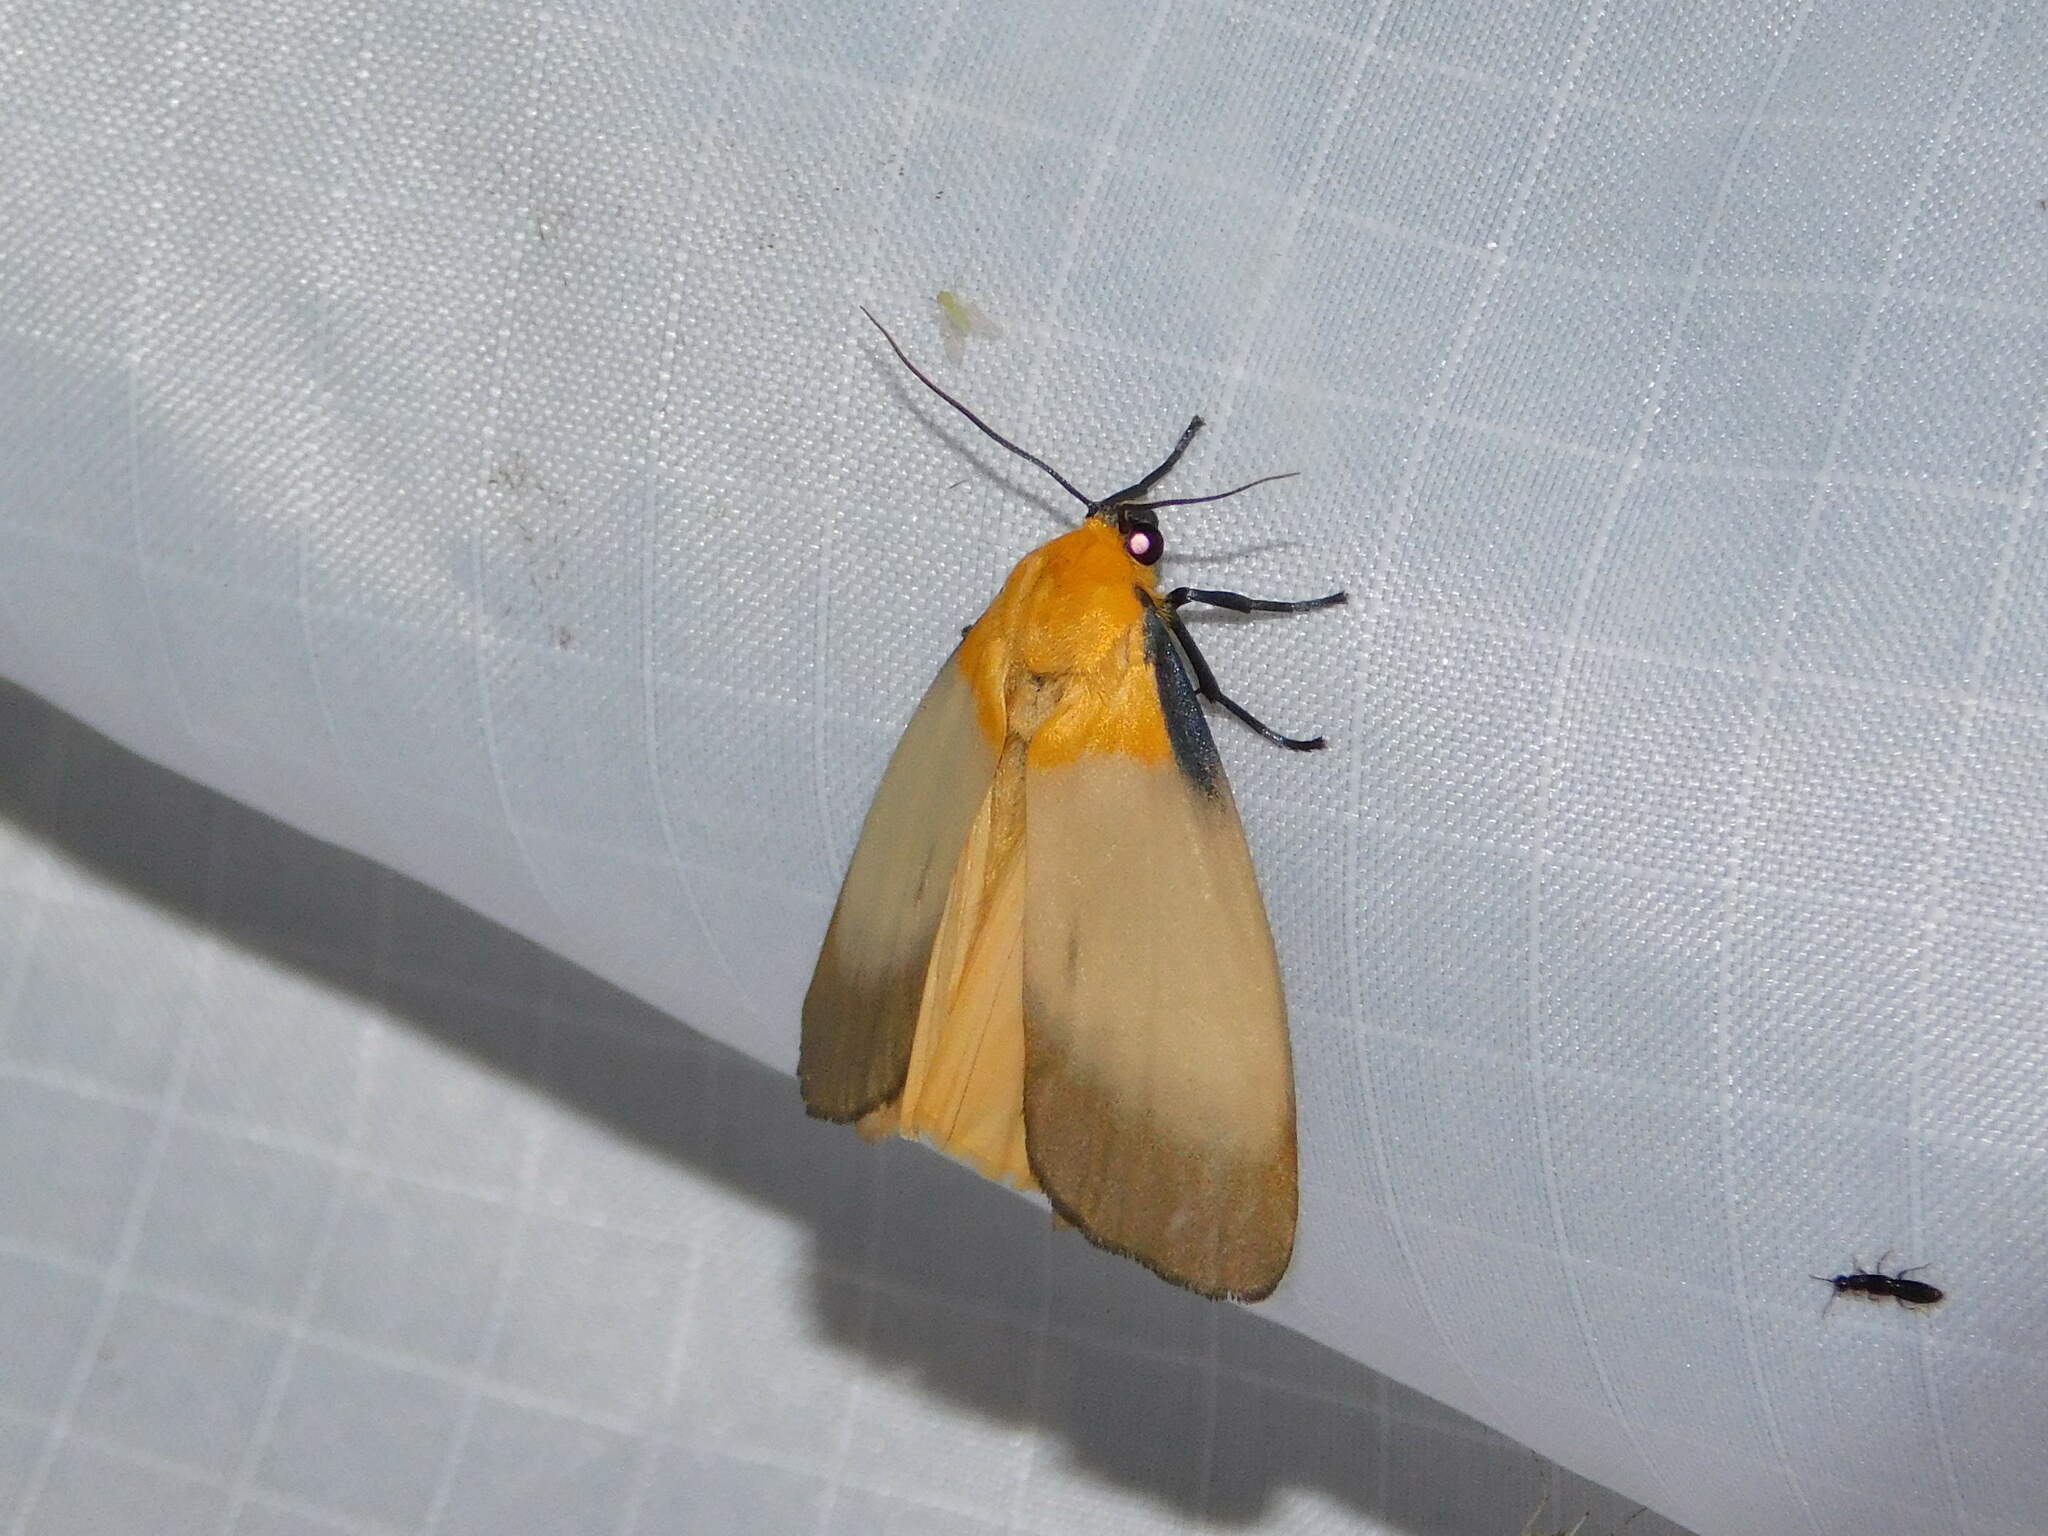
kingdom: Animalia
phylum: Arthropoda
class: Insecta
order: Lepidoptera
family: Erebidae
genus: Lithosia
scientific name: Lithosia quadra
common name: Four-spotted footman
